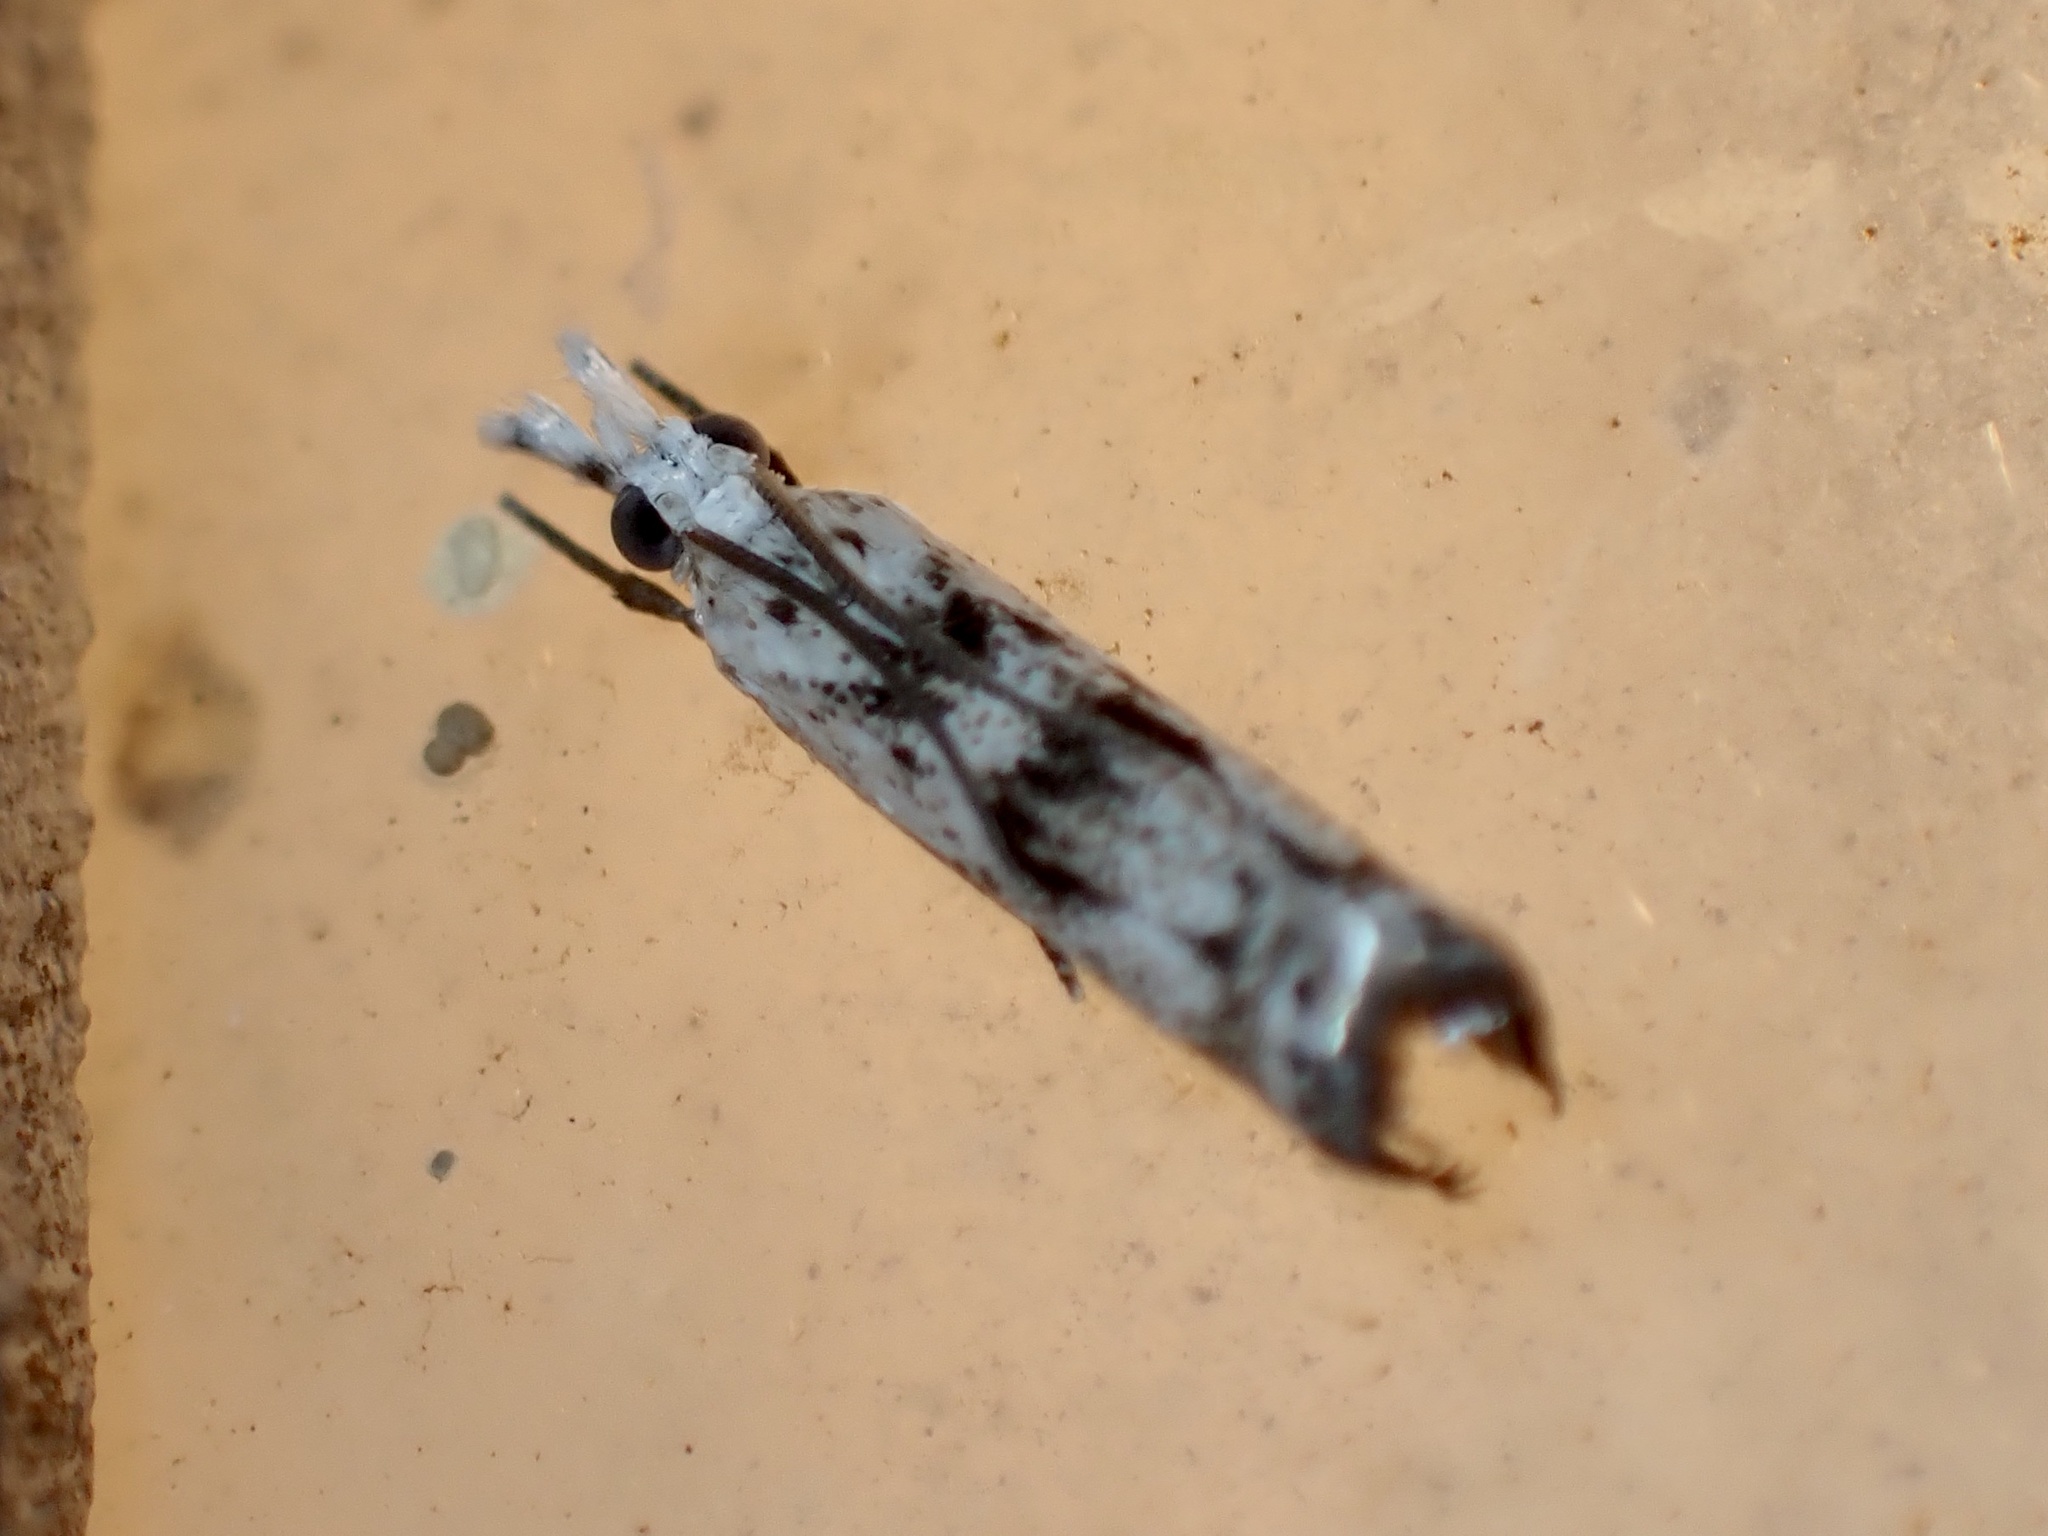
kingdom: Animalia
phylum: Arthropoda
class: Insecta
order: Lepidoptera
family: Crambidae
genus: Microcrambus
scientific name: Microcrambus elegans
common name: Elegant grass-veneer
